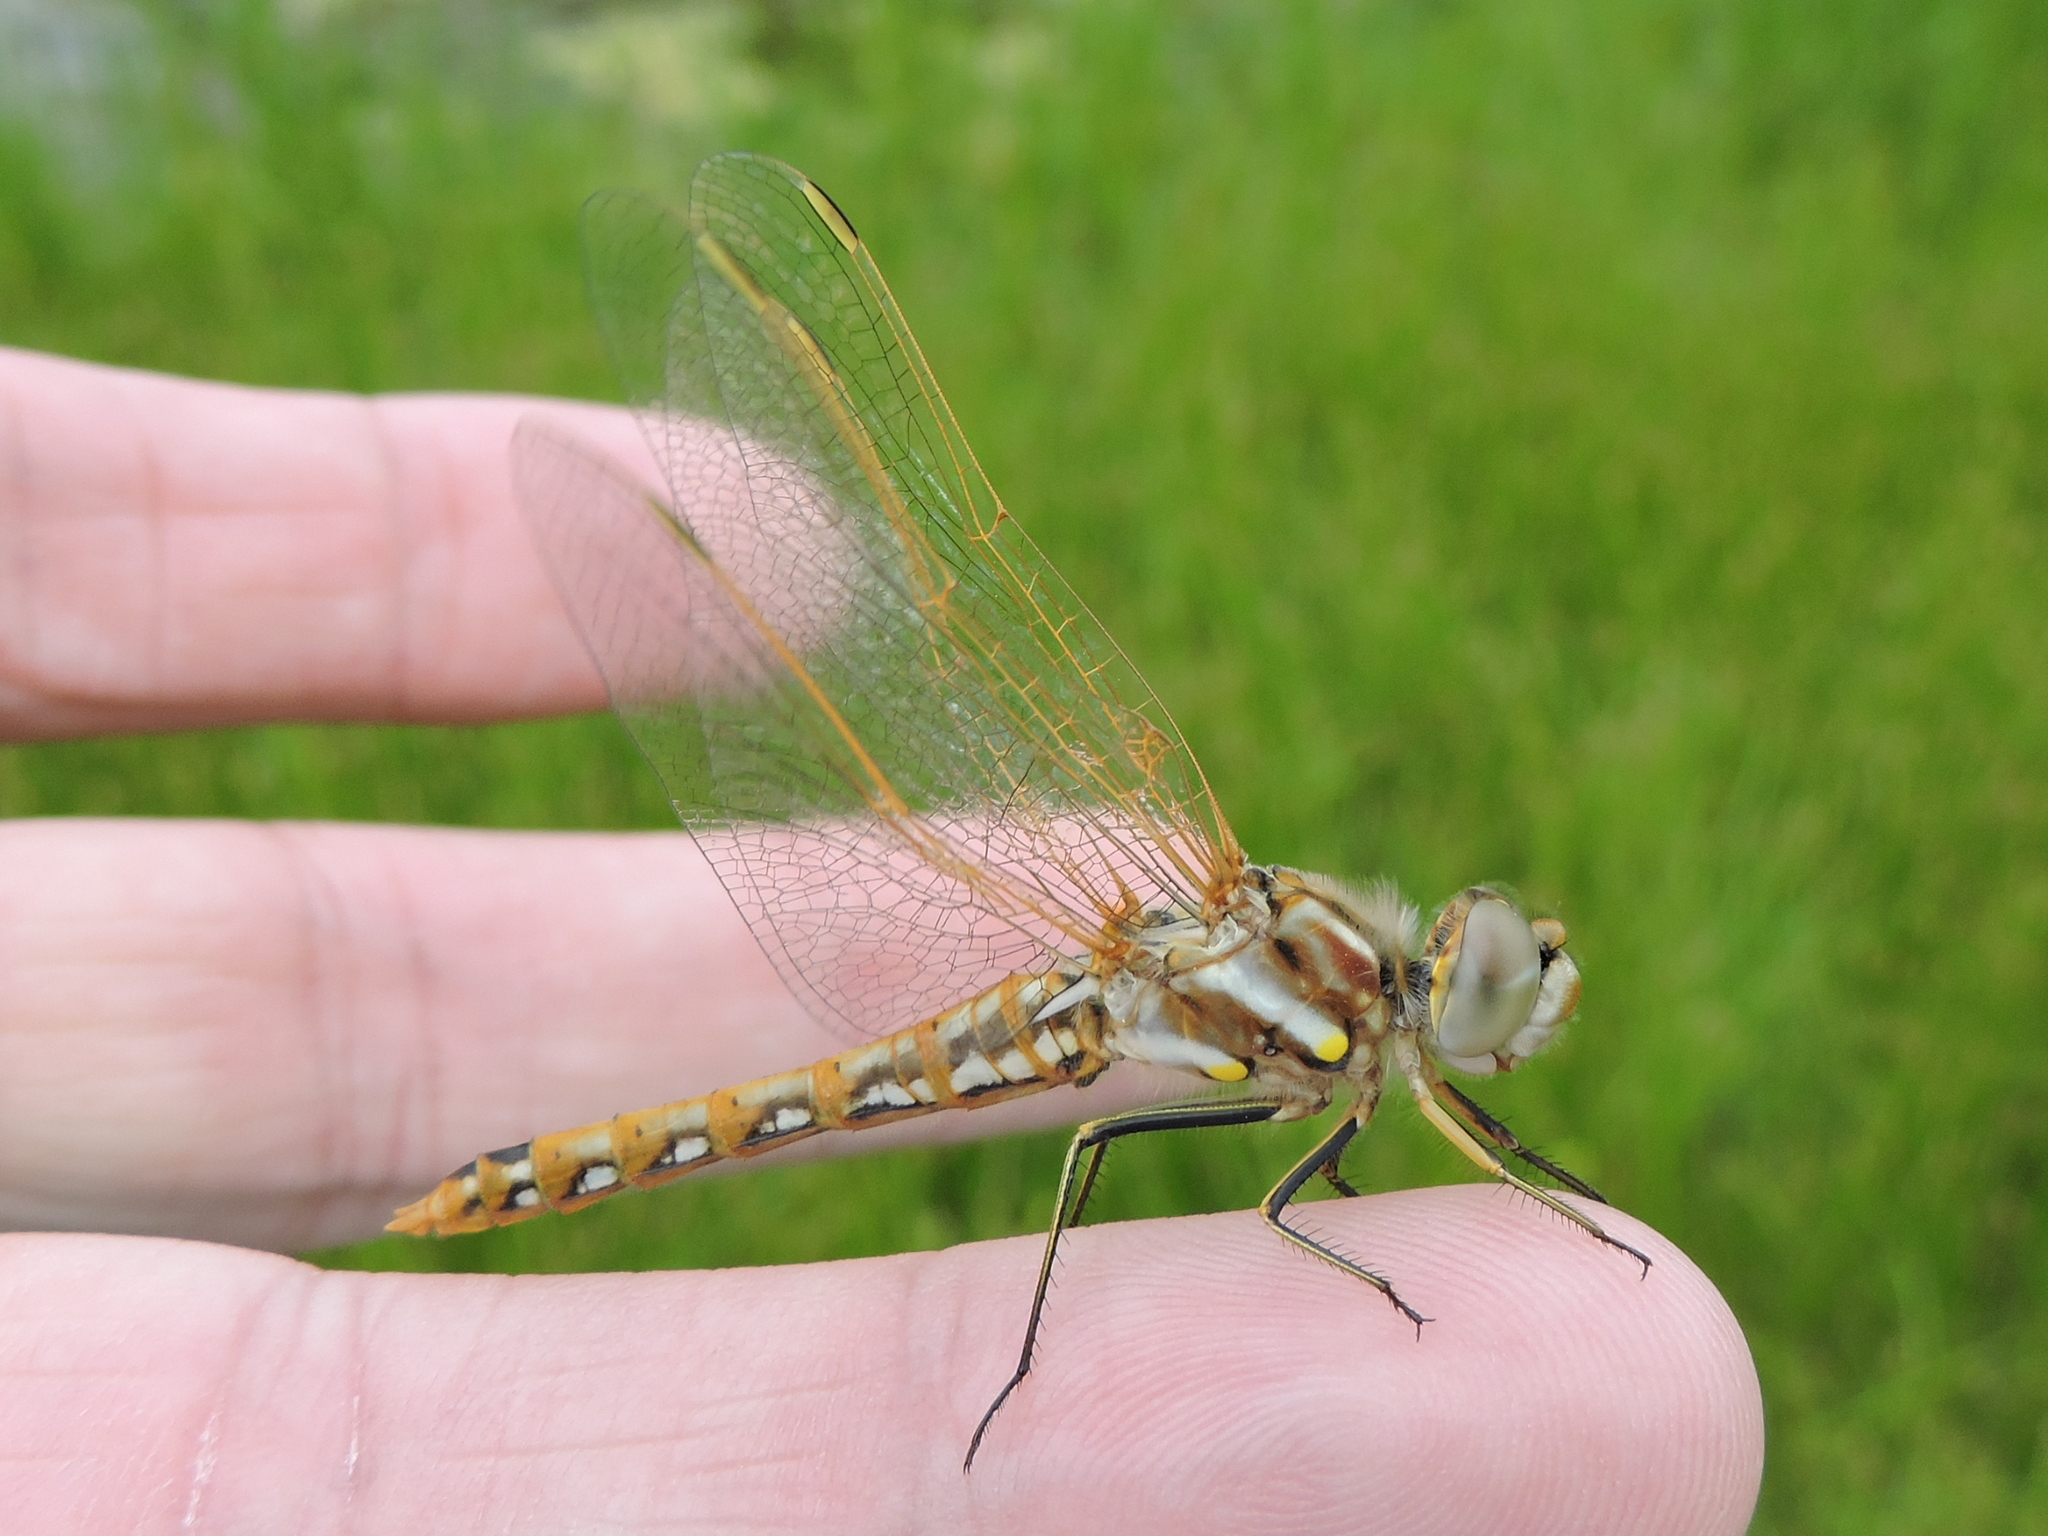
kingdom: Animalia
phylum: Arthropoda
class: Insecta
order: Odonata
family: Libellulidae
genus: Sympetrum
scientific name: Sympetrum corruptum
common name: Variegated meadowhawk
